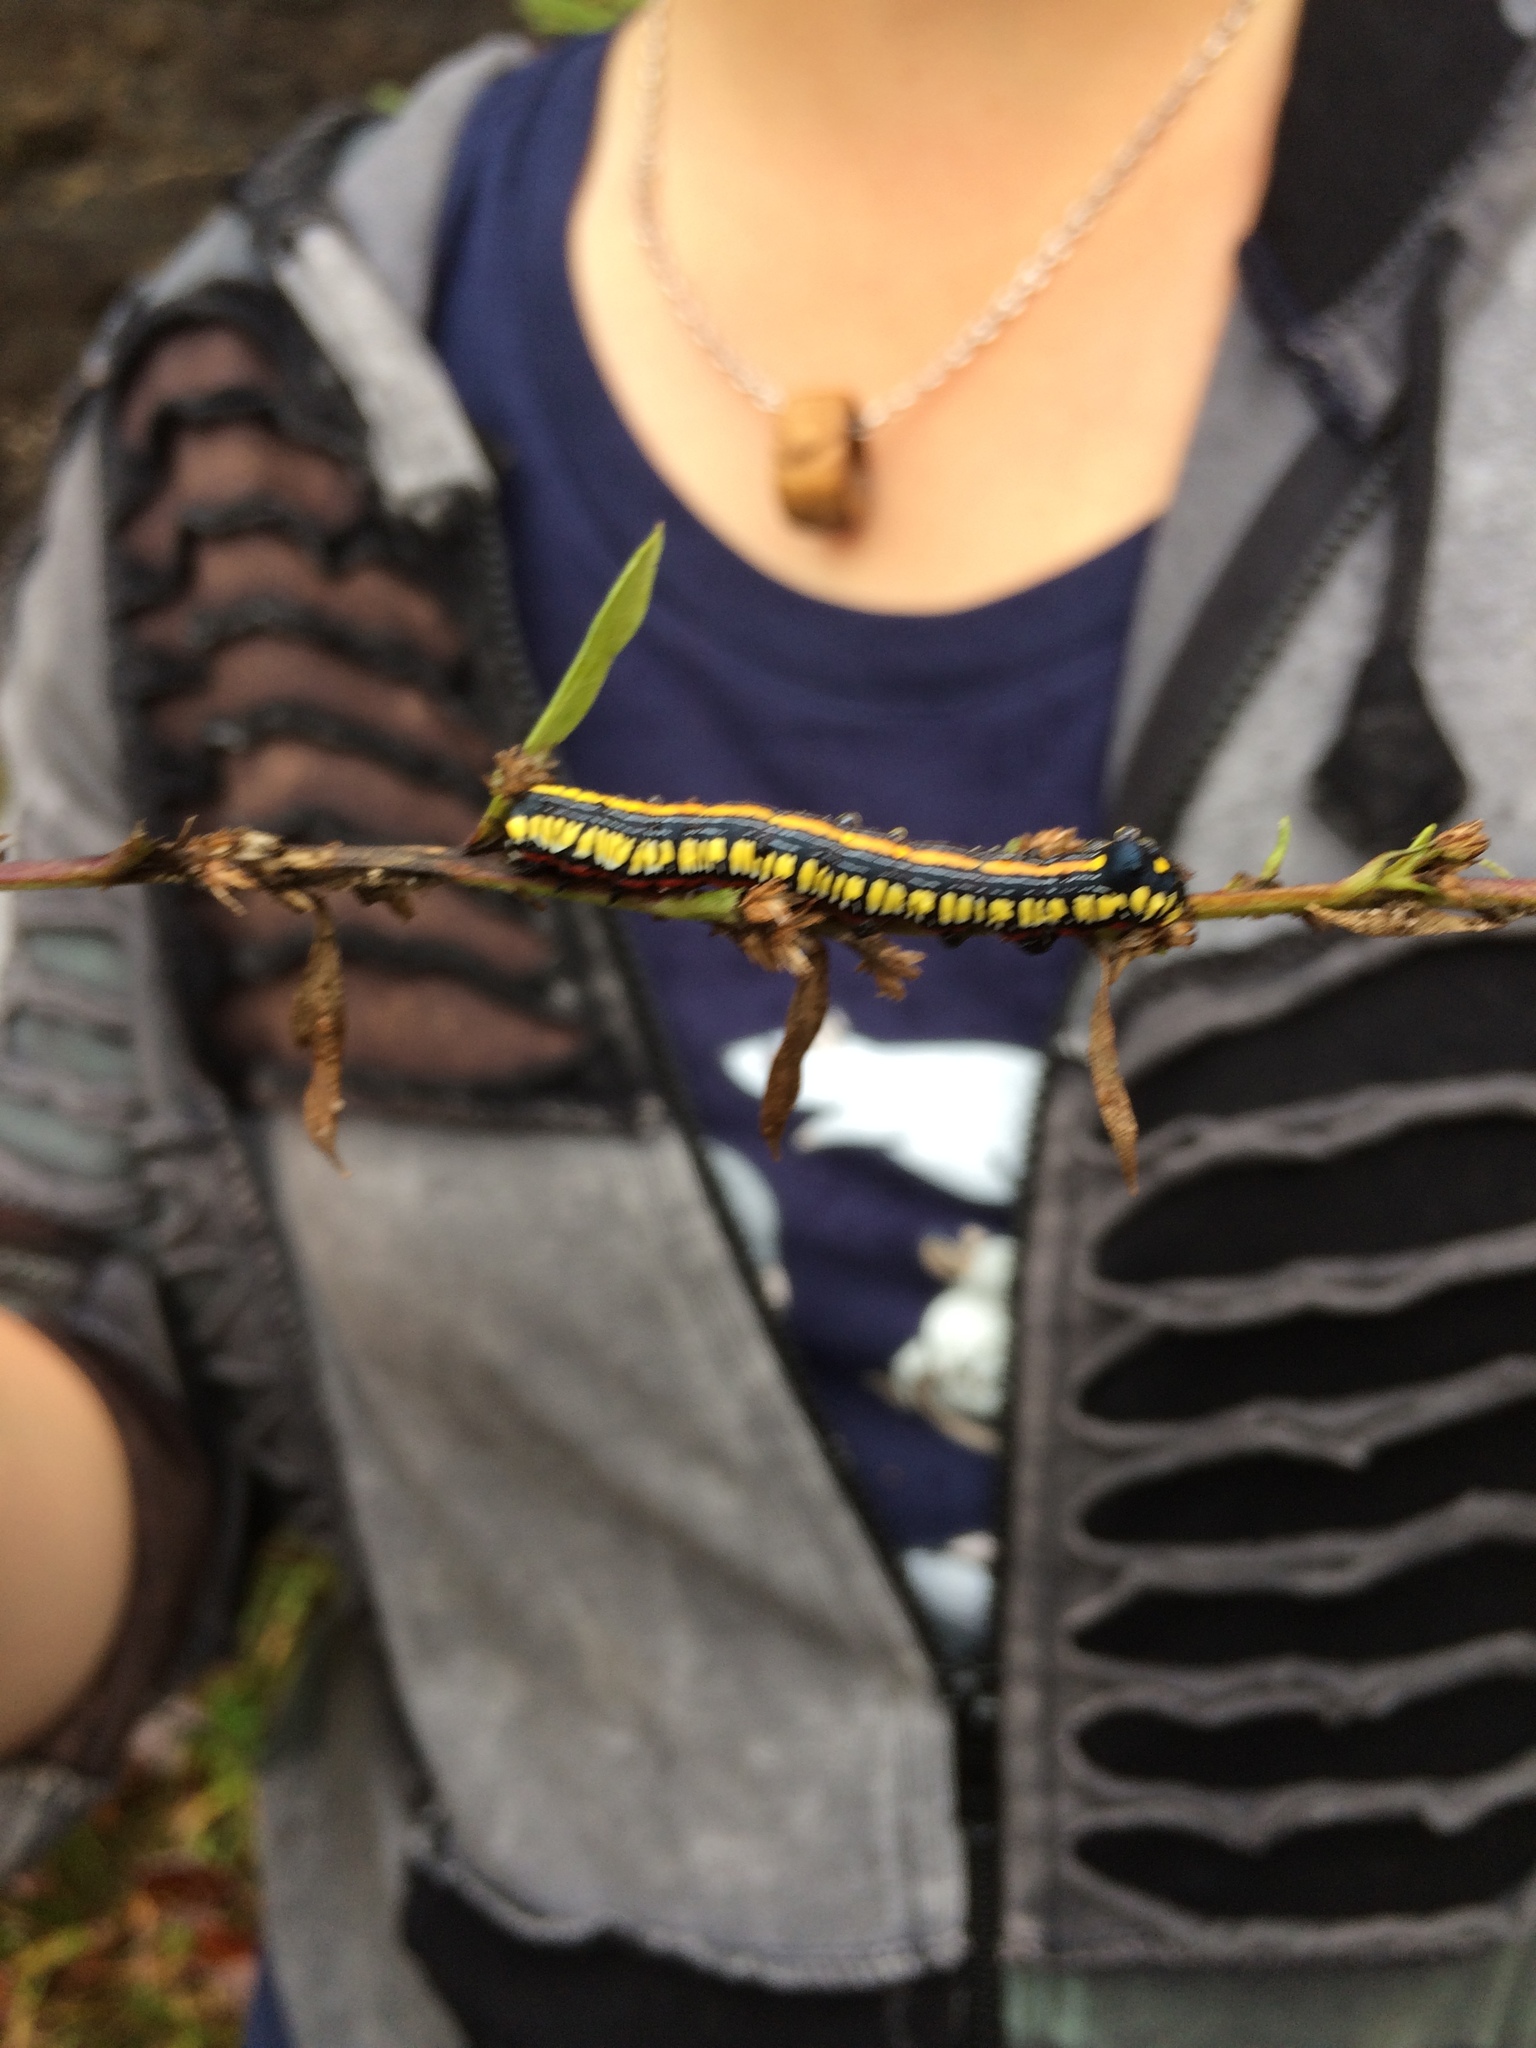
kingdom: Animalia
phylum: Arthropoda
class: Insecta
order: Lepidoptera
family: Noctuidae
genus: Cucullia
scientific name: Cucullia convexipennis
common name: Brown-hooded owlet
